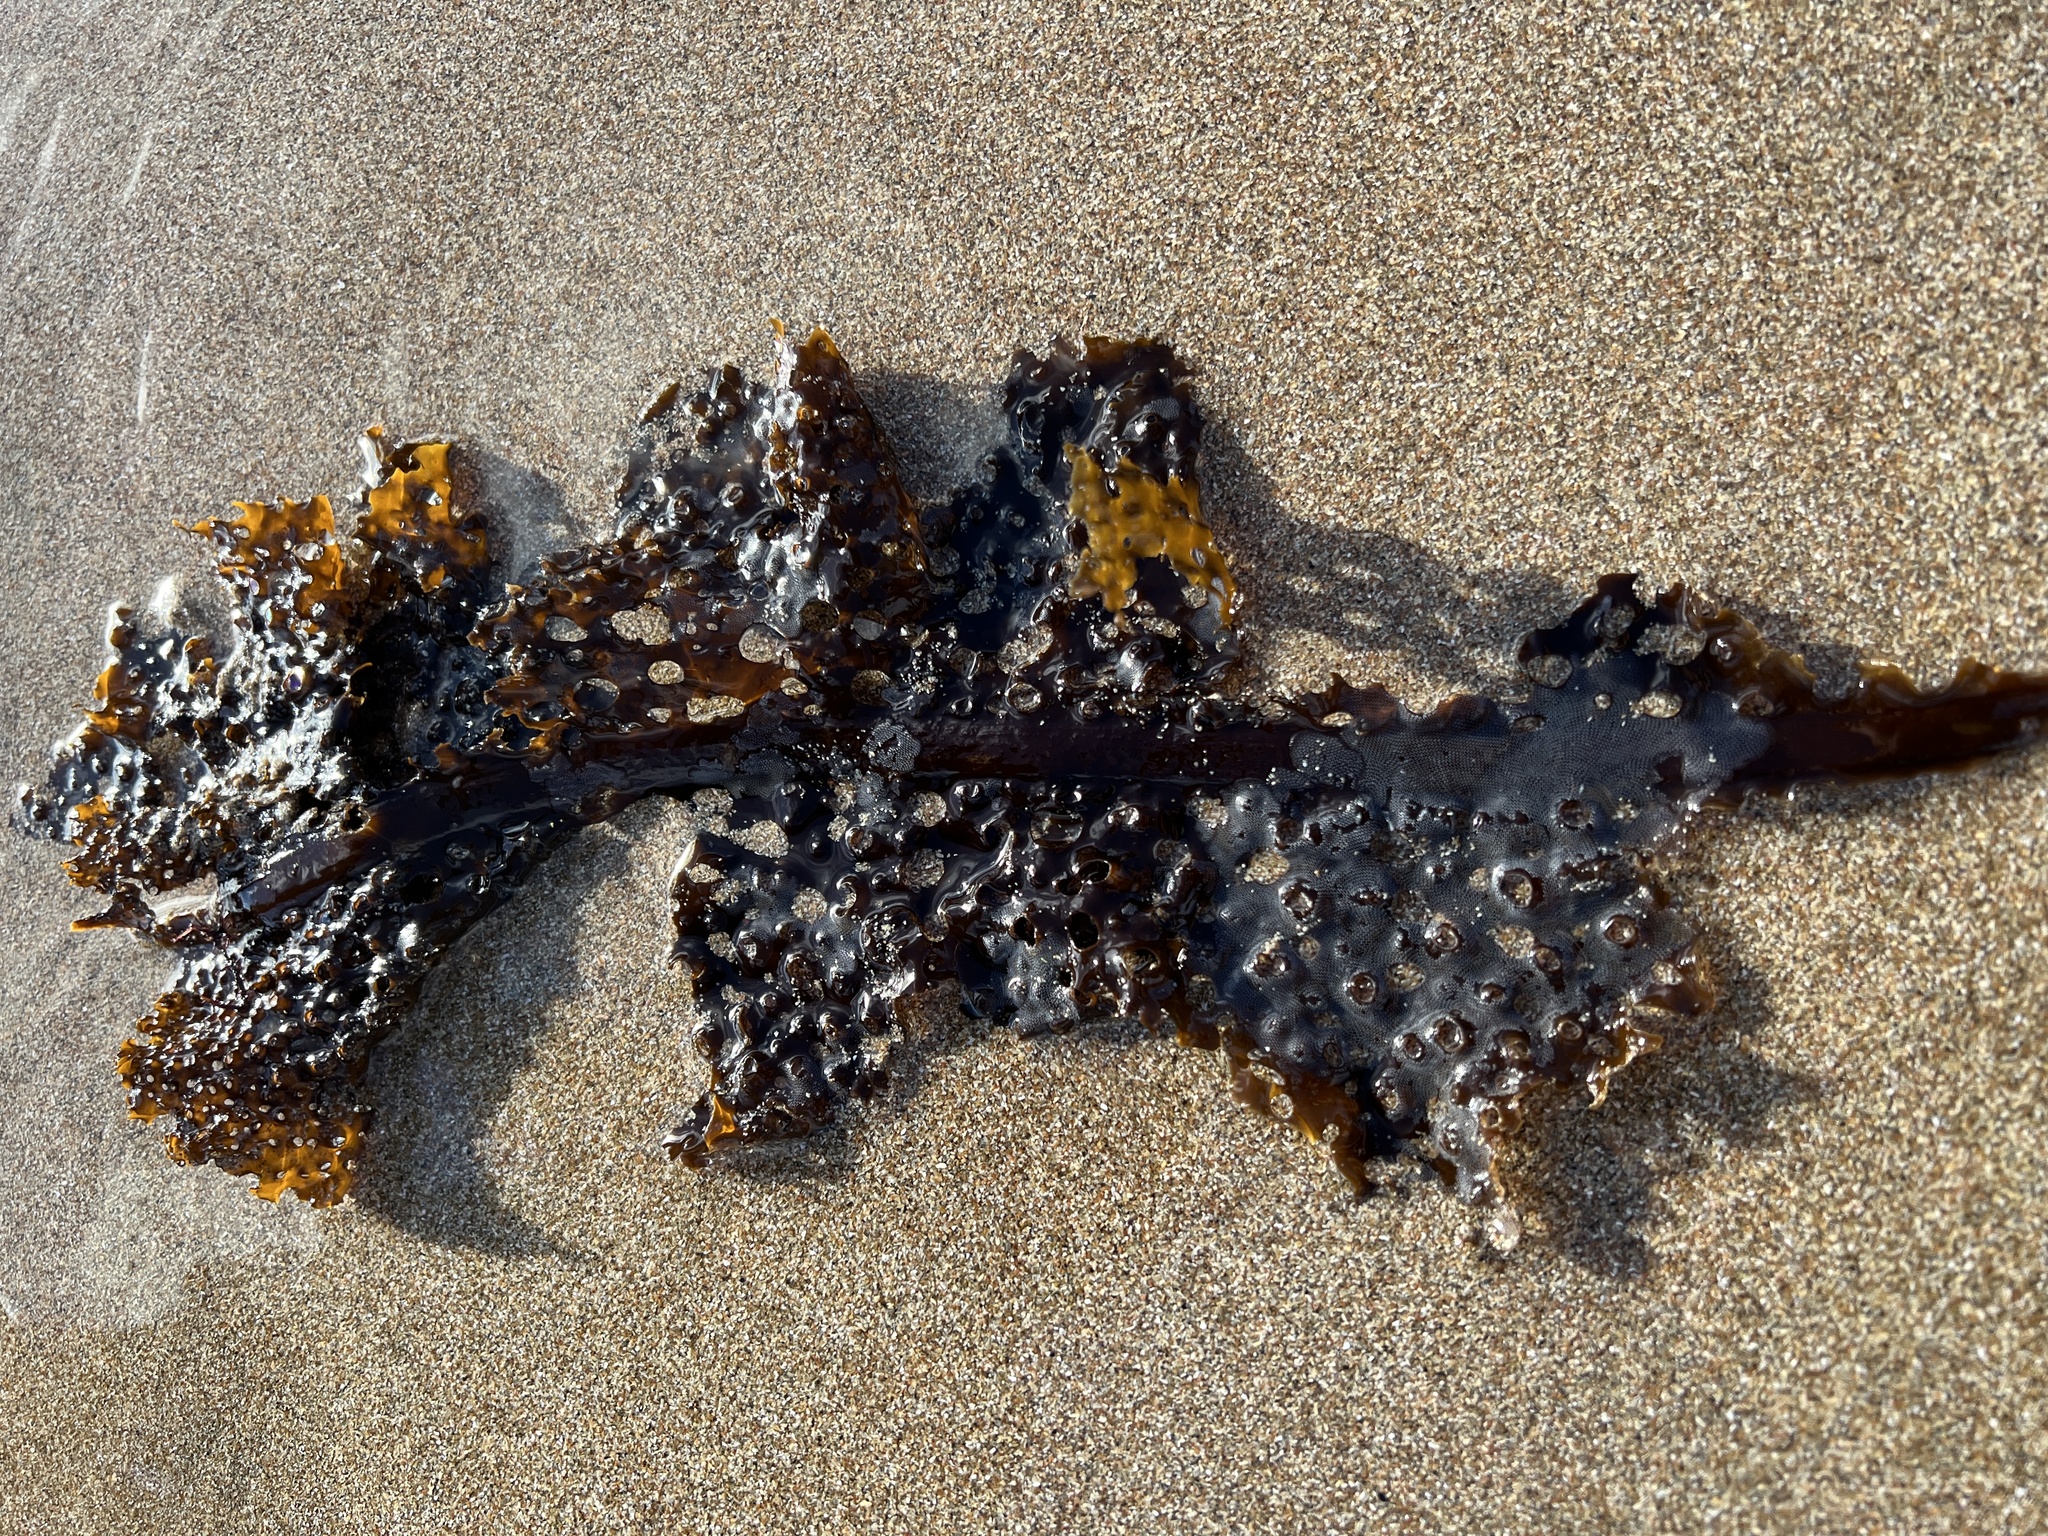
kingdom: Chromista
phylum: Ochrophyta
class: Phaeophyceae
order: Laminariales
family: Costariaceae
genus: Agarum
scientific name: Agarum clathratum
